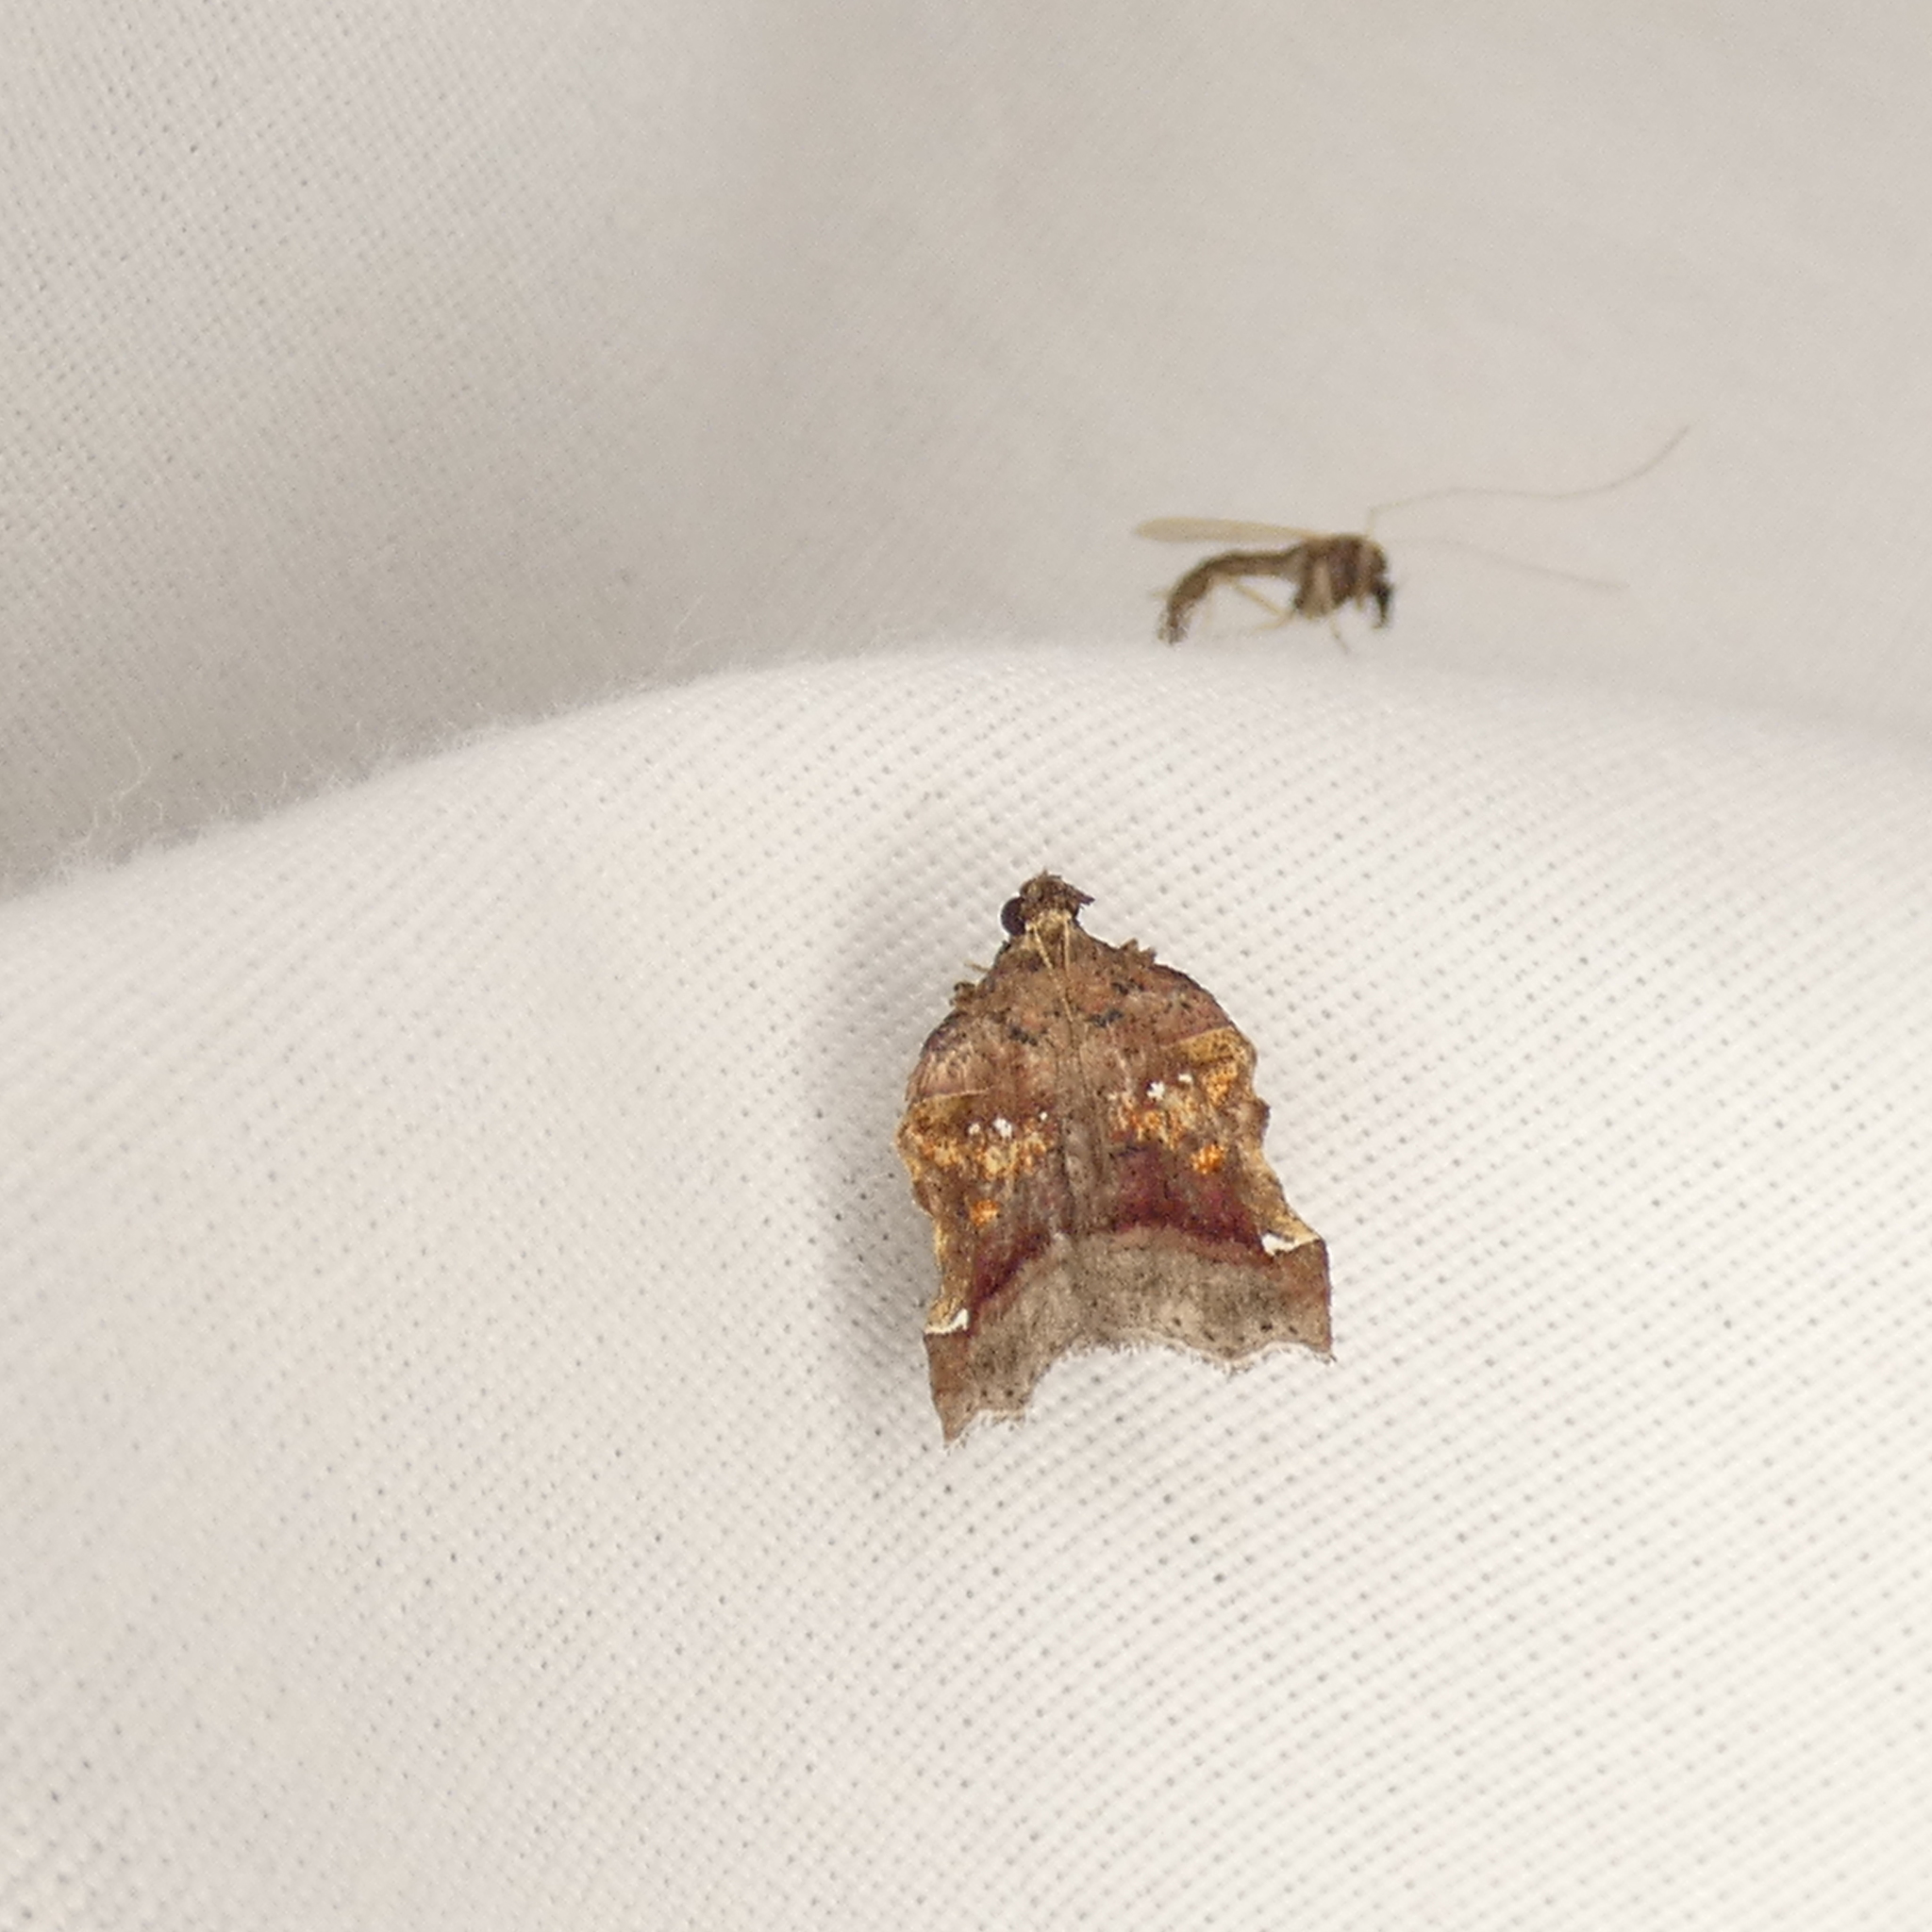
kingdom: Animalia
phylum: Arthropoda
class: Insecta
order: Lepidoptera
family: Pyralidae
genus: Clydonopteron
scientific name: Clydonopteron sacculana
